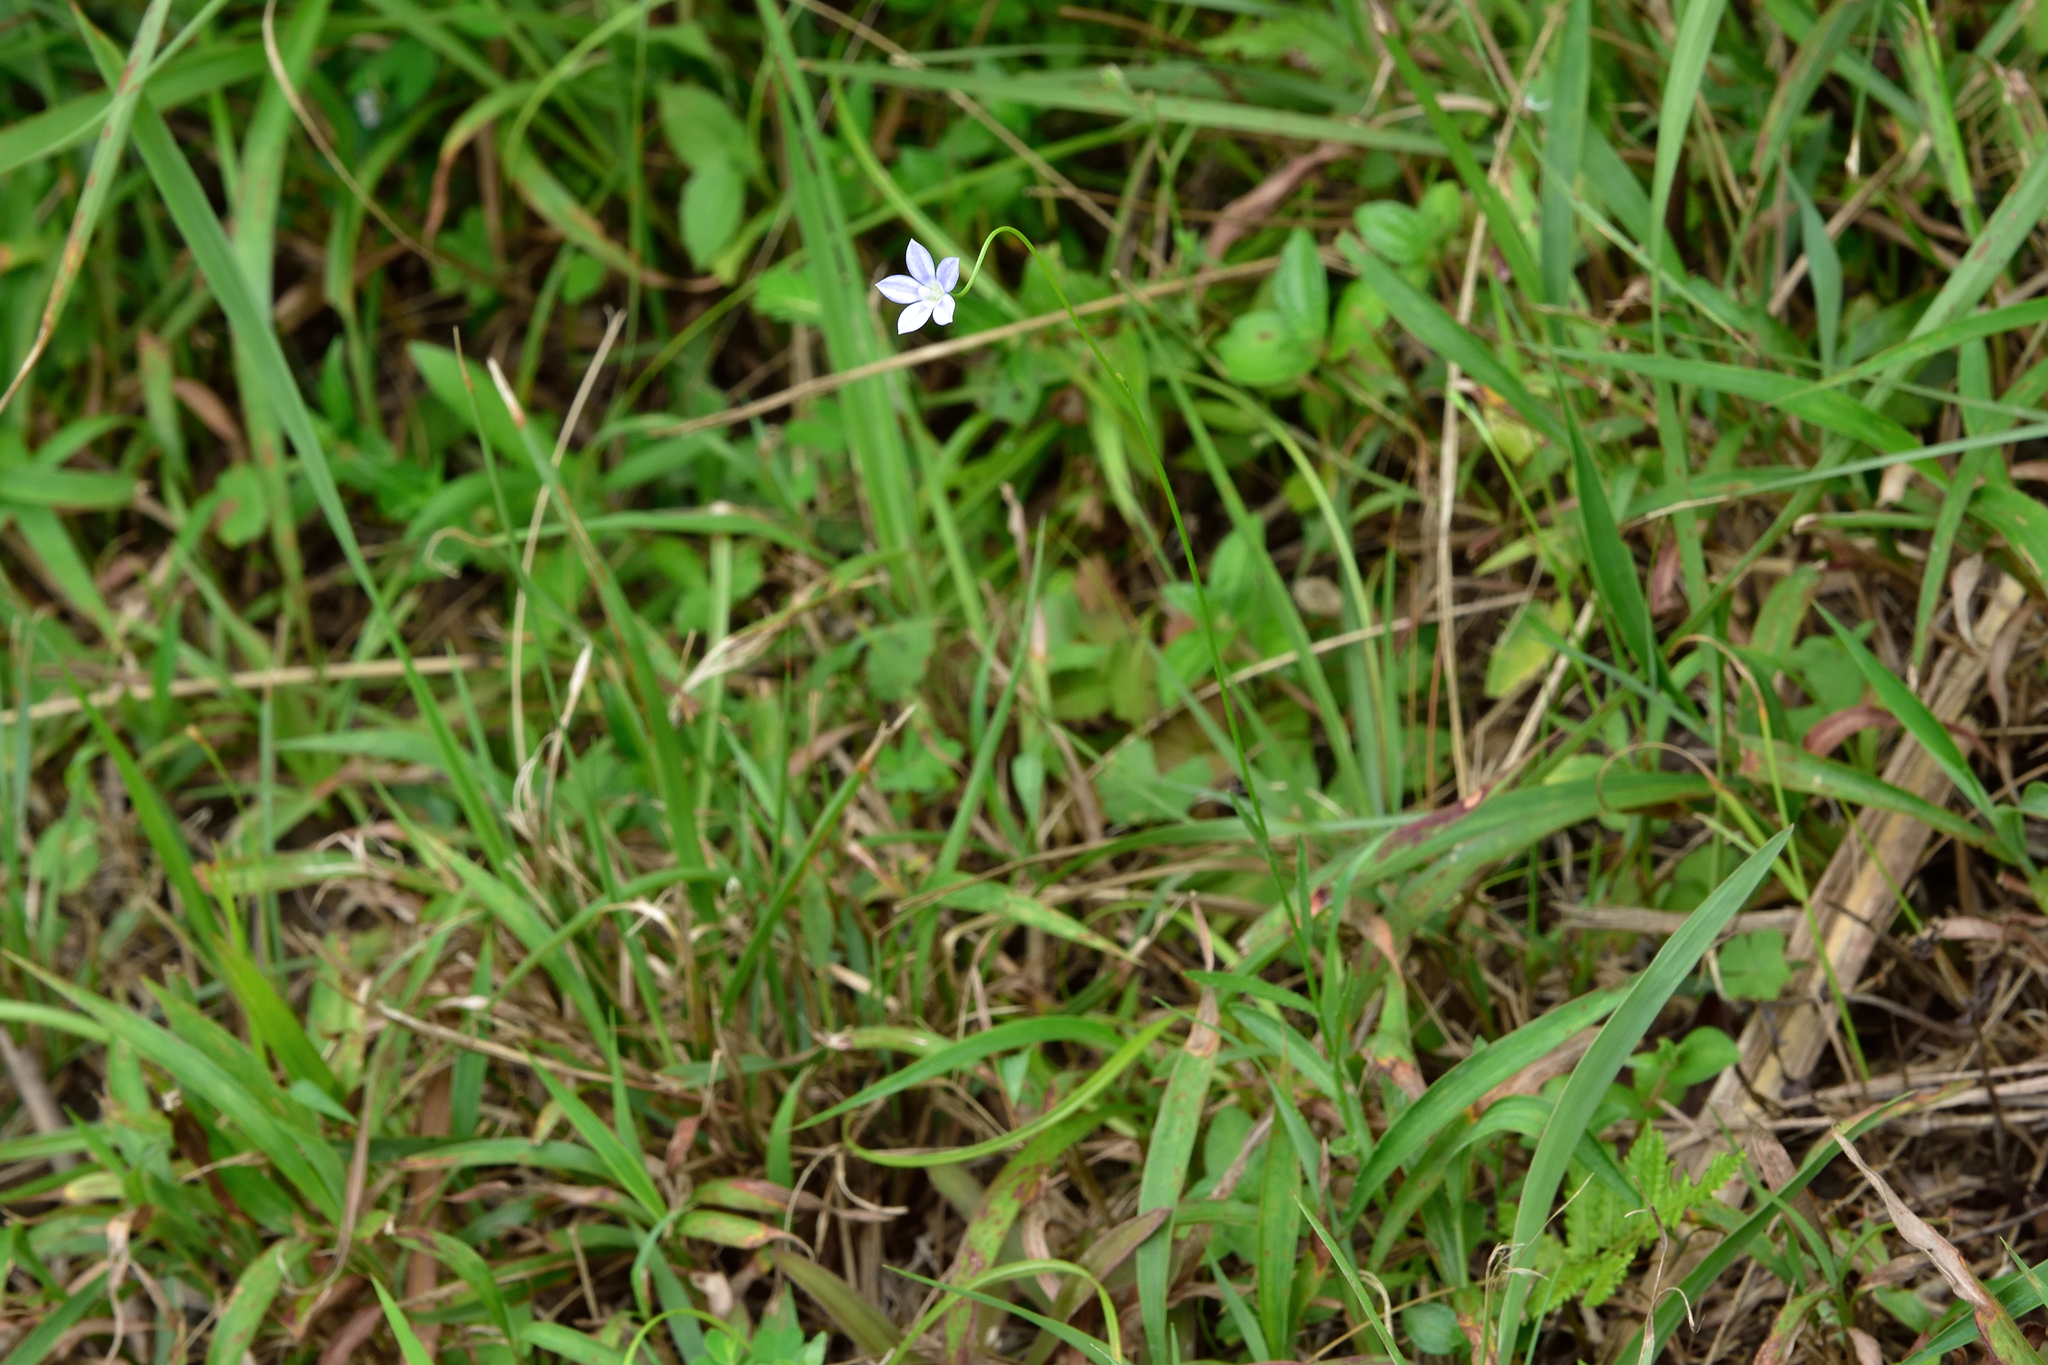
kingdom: Plantae
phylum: Tracheophyta
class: Magnoliopsida
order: Asterales
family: Campanulaceae
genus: Wahlenbergia
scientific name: Wahlenbergia marginata
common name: Southern rockbell
